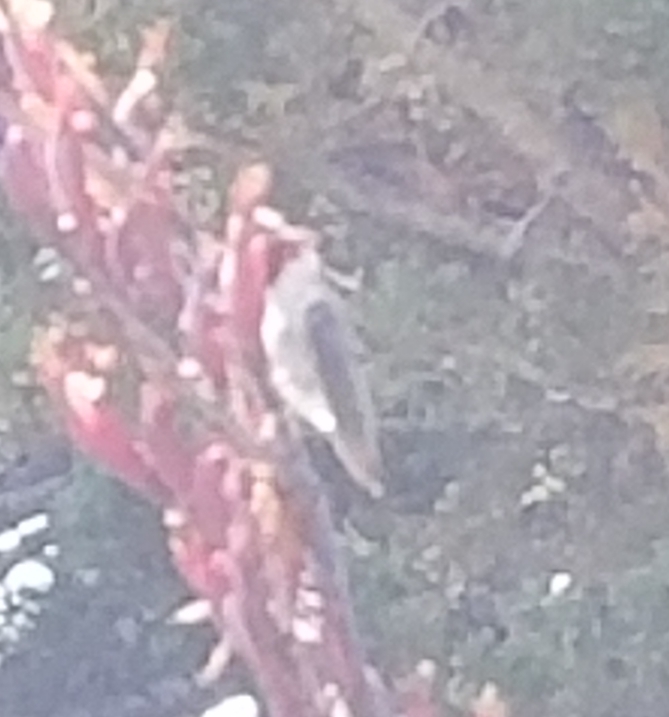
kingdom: Animalia
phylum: Chordata
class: Aves
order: Apodiformes
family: Trochilidae
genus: Calypte
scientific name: Calypte anna
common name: Anna's hummingbird
